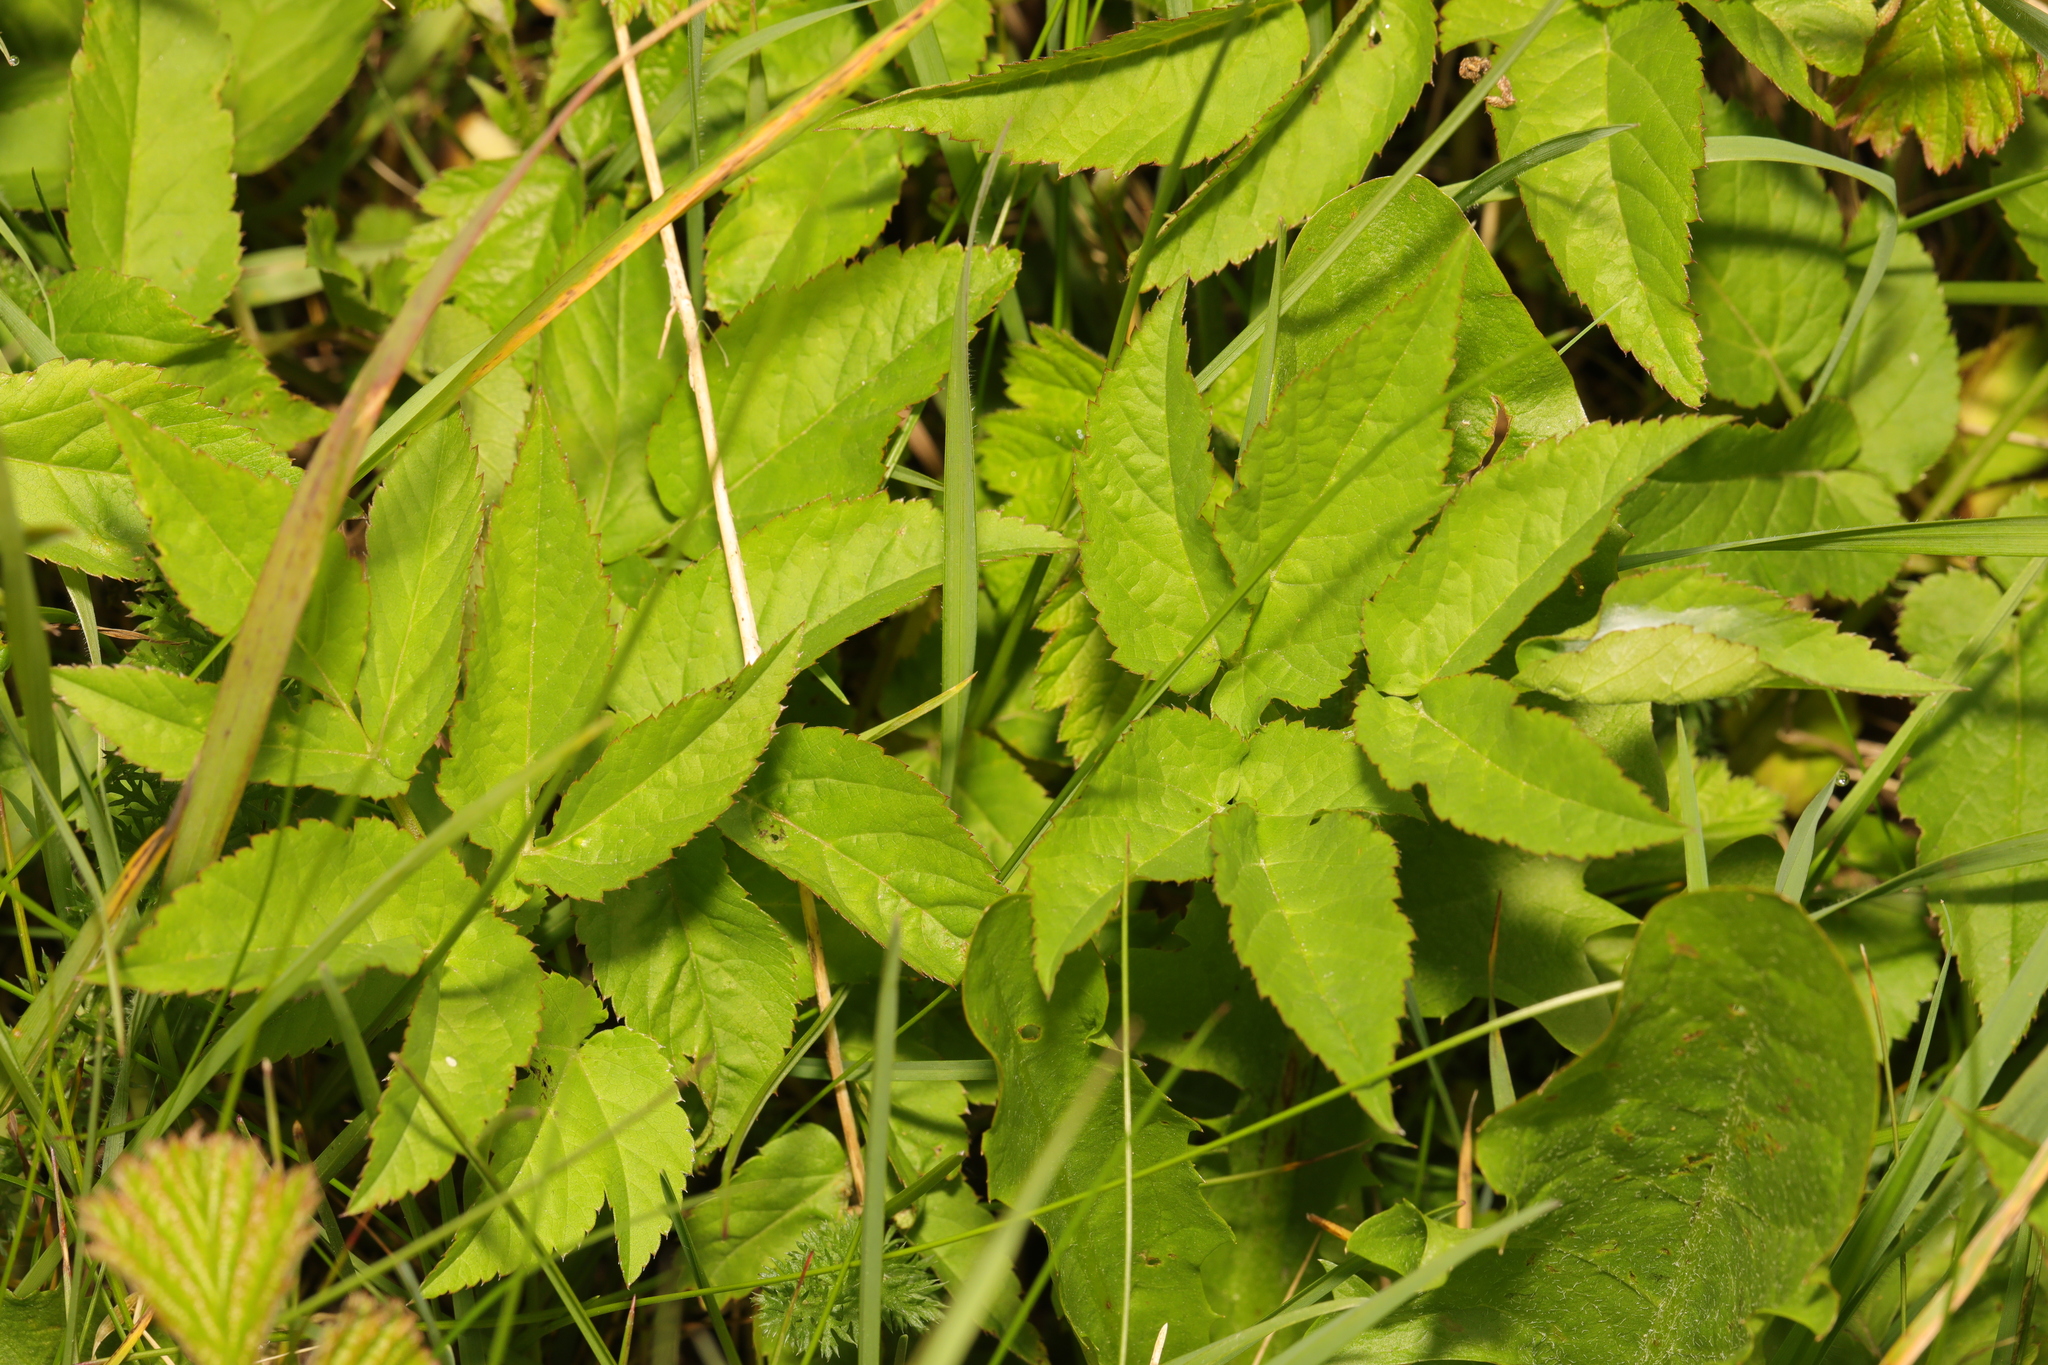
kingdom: Plantae
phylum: Tracheophyta
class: Magnoliopsida
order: Apiales
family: Apiaceae
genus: Aegopodium
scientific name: Aegopodium podagraria
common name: Ground-elder
